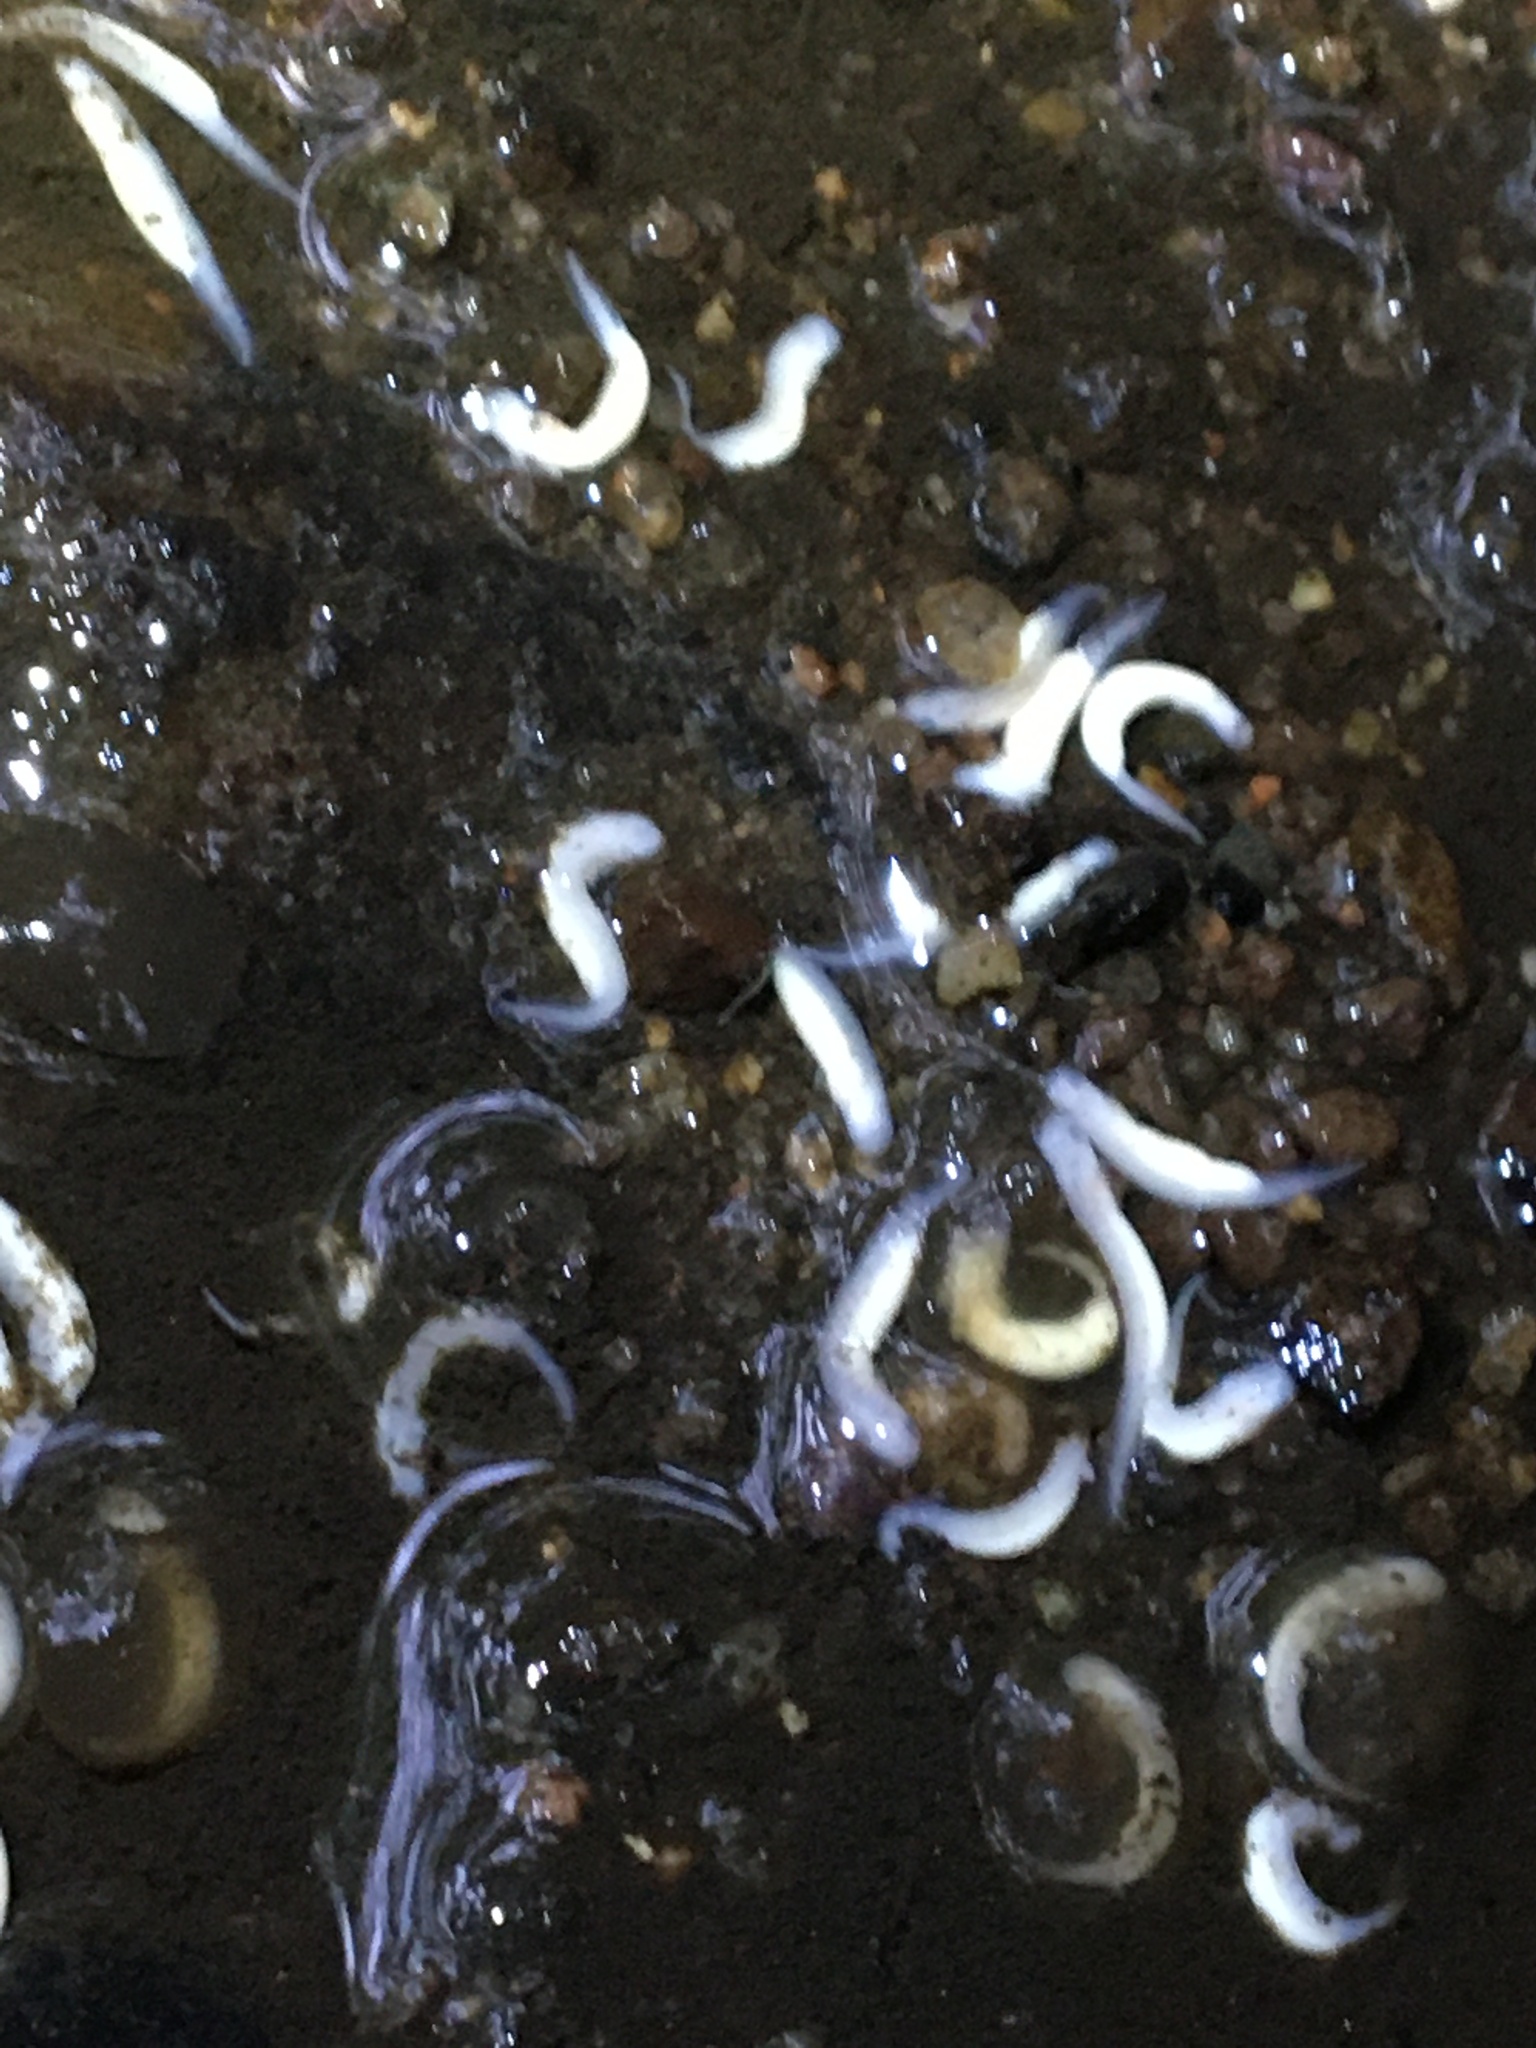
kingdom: Animalia
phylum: Chordata
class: Amphibia
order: Caudata
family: Plethodontidae
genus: Eurycea
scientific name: Eurycea bislineata
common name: Northern two-lined salamander
